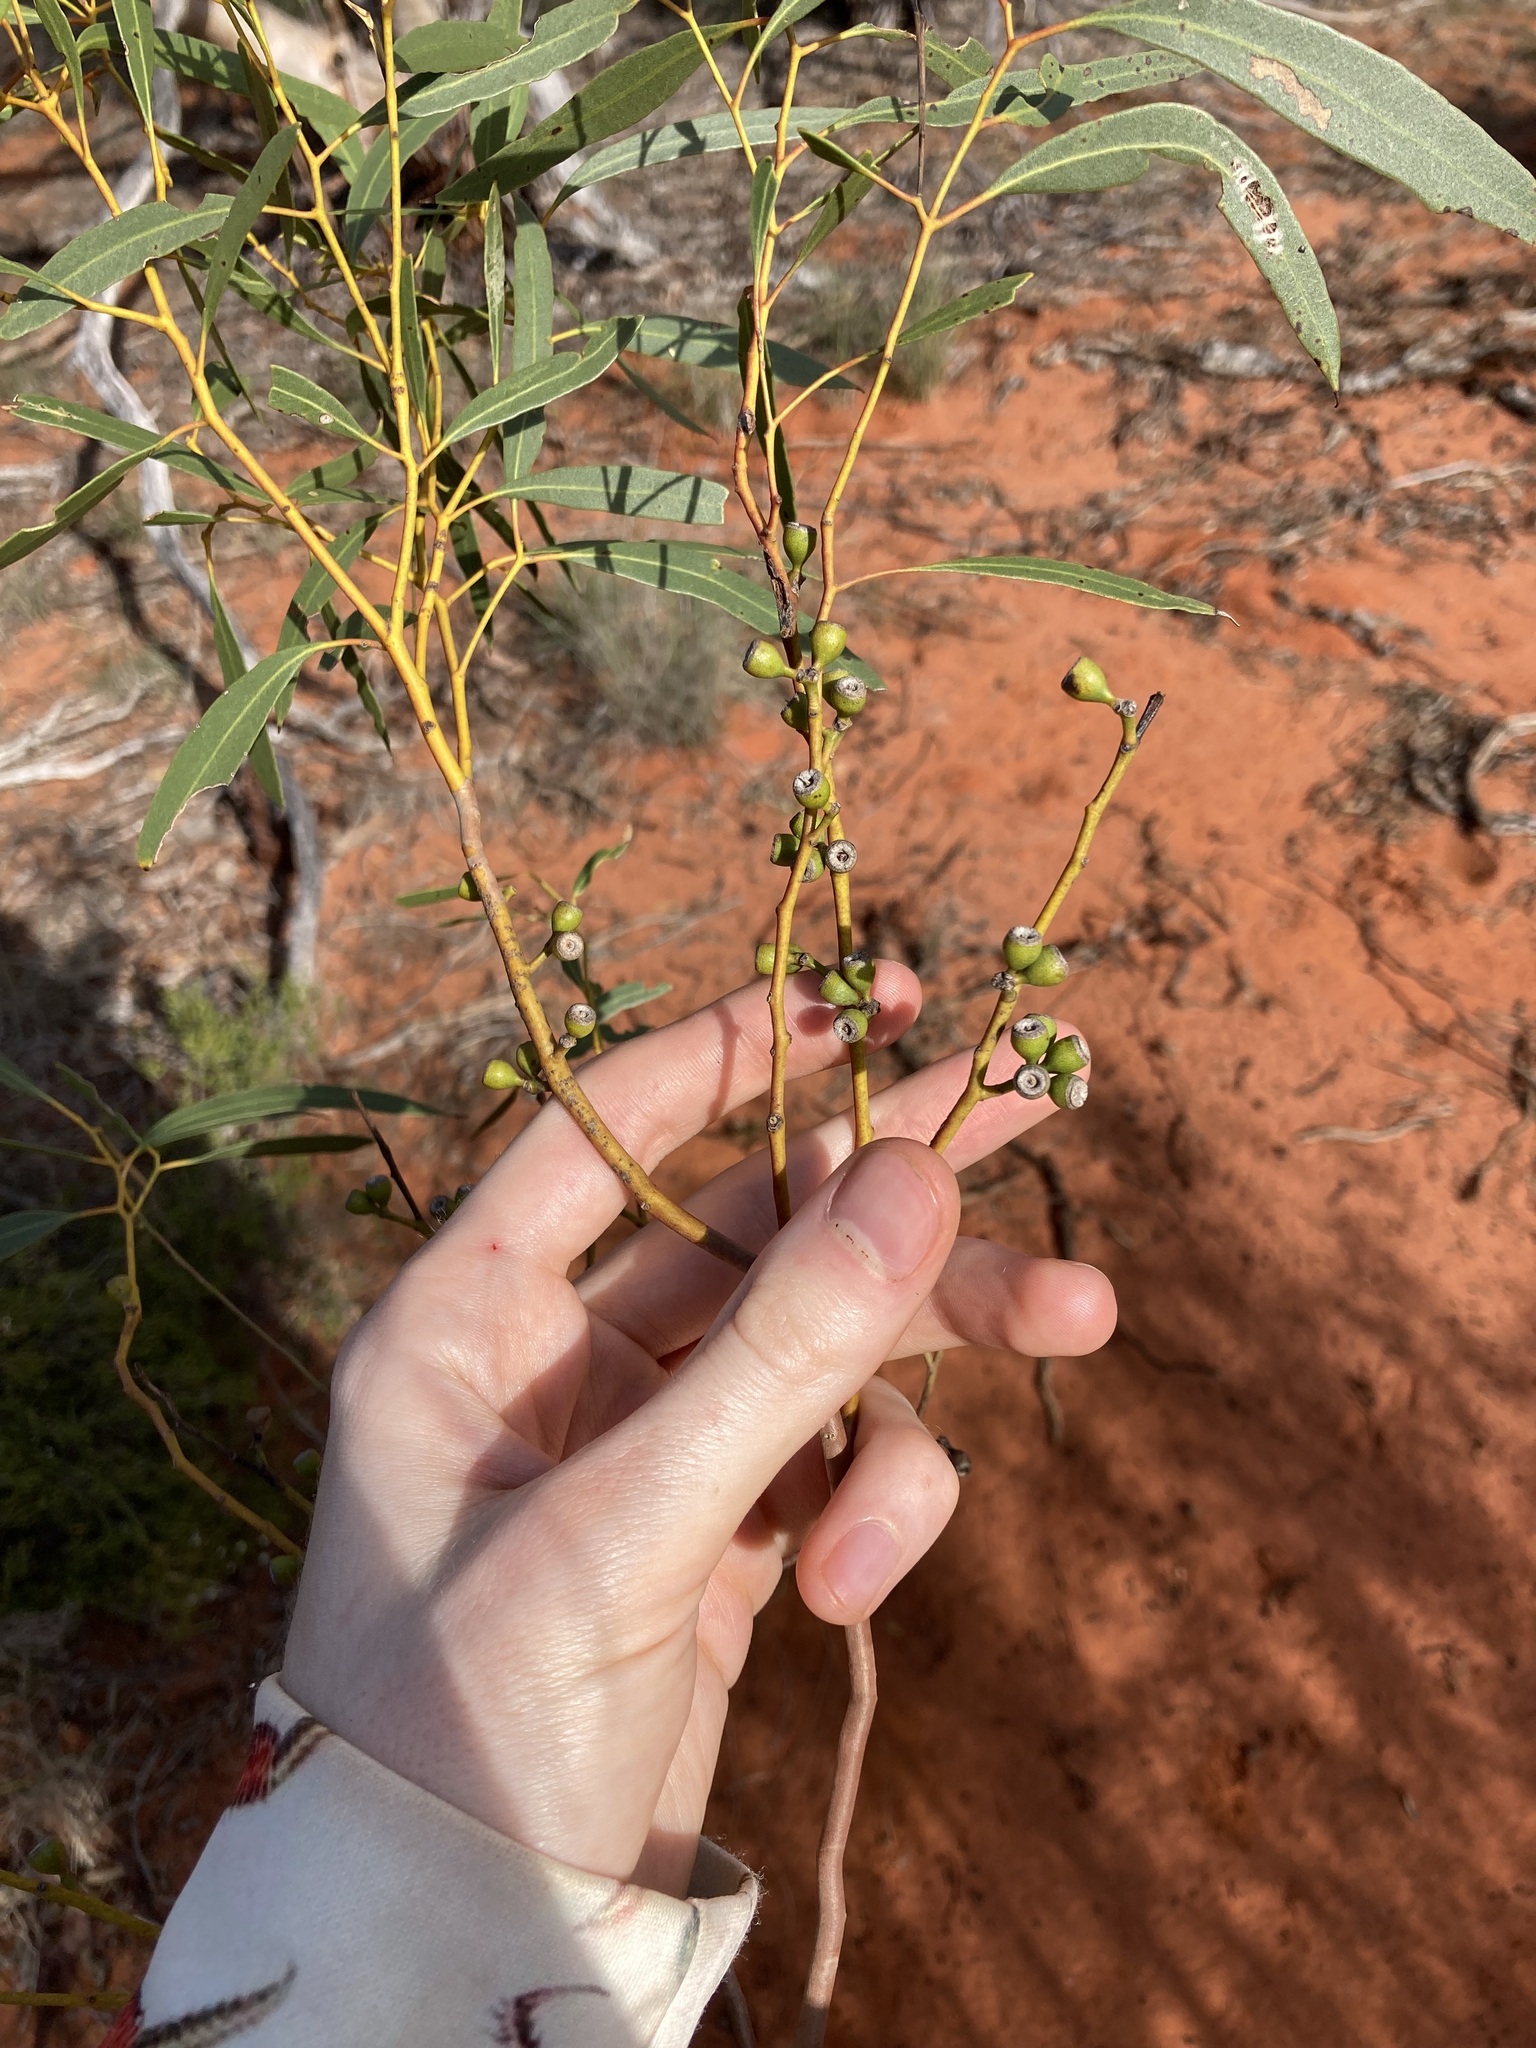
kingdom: Plantae
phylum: Tracheophyta
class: Magnoliopsida
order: Myrtales
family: Myrtaceae
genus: Eucalyptus
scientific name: Eucalyptus rigidula
